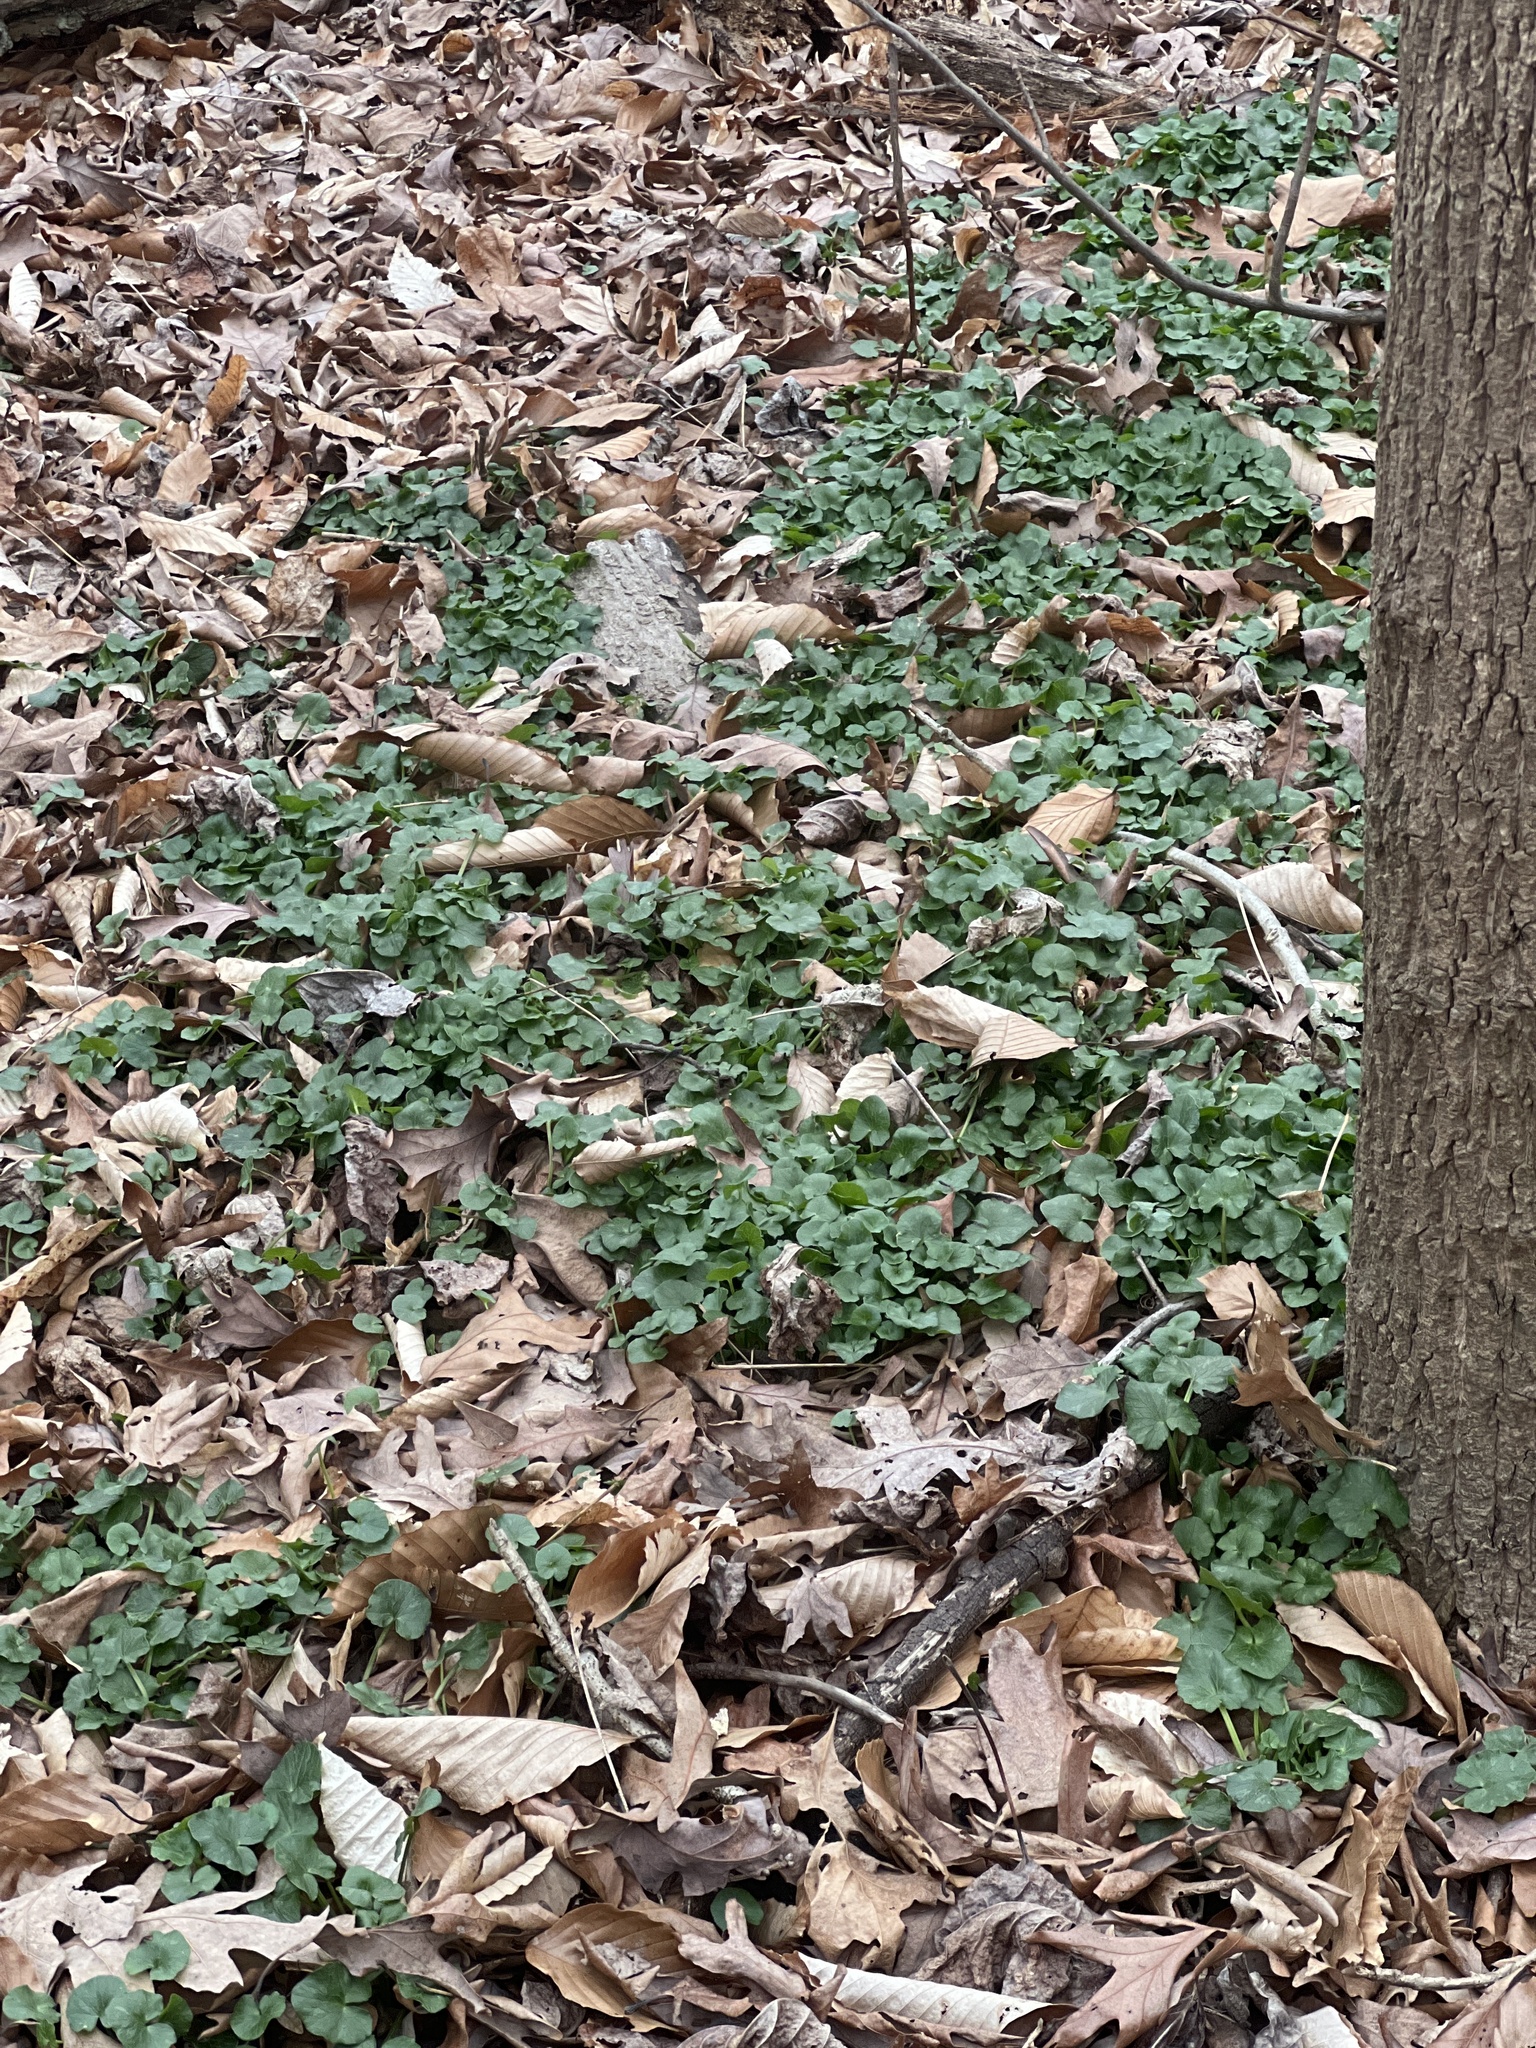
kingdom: Plantae
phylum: Tracheophyta
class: Magnoliopsida
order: Ranunculales
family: Ranunculaceae
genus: Ficaria
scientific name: Ficaria verna
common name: Lesser celandine
